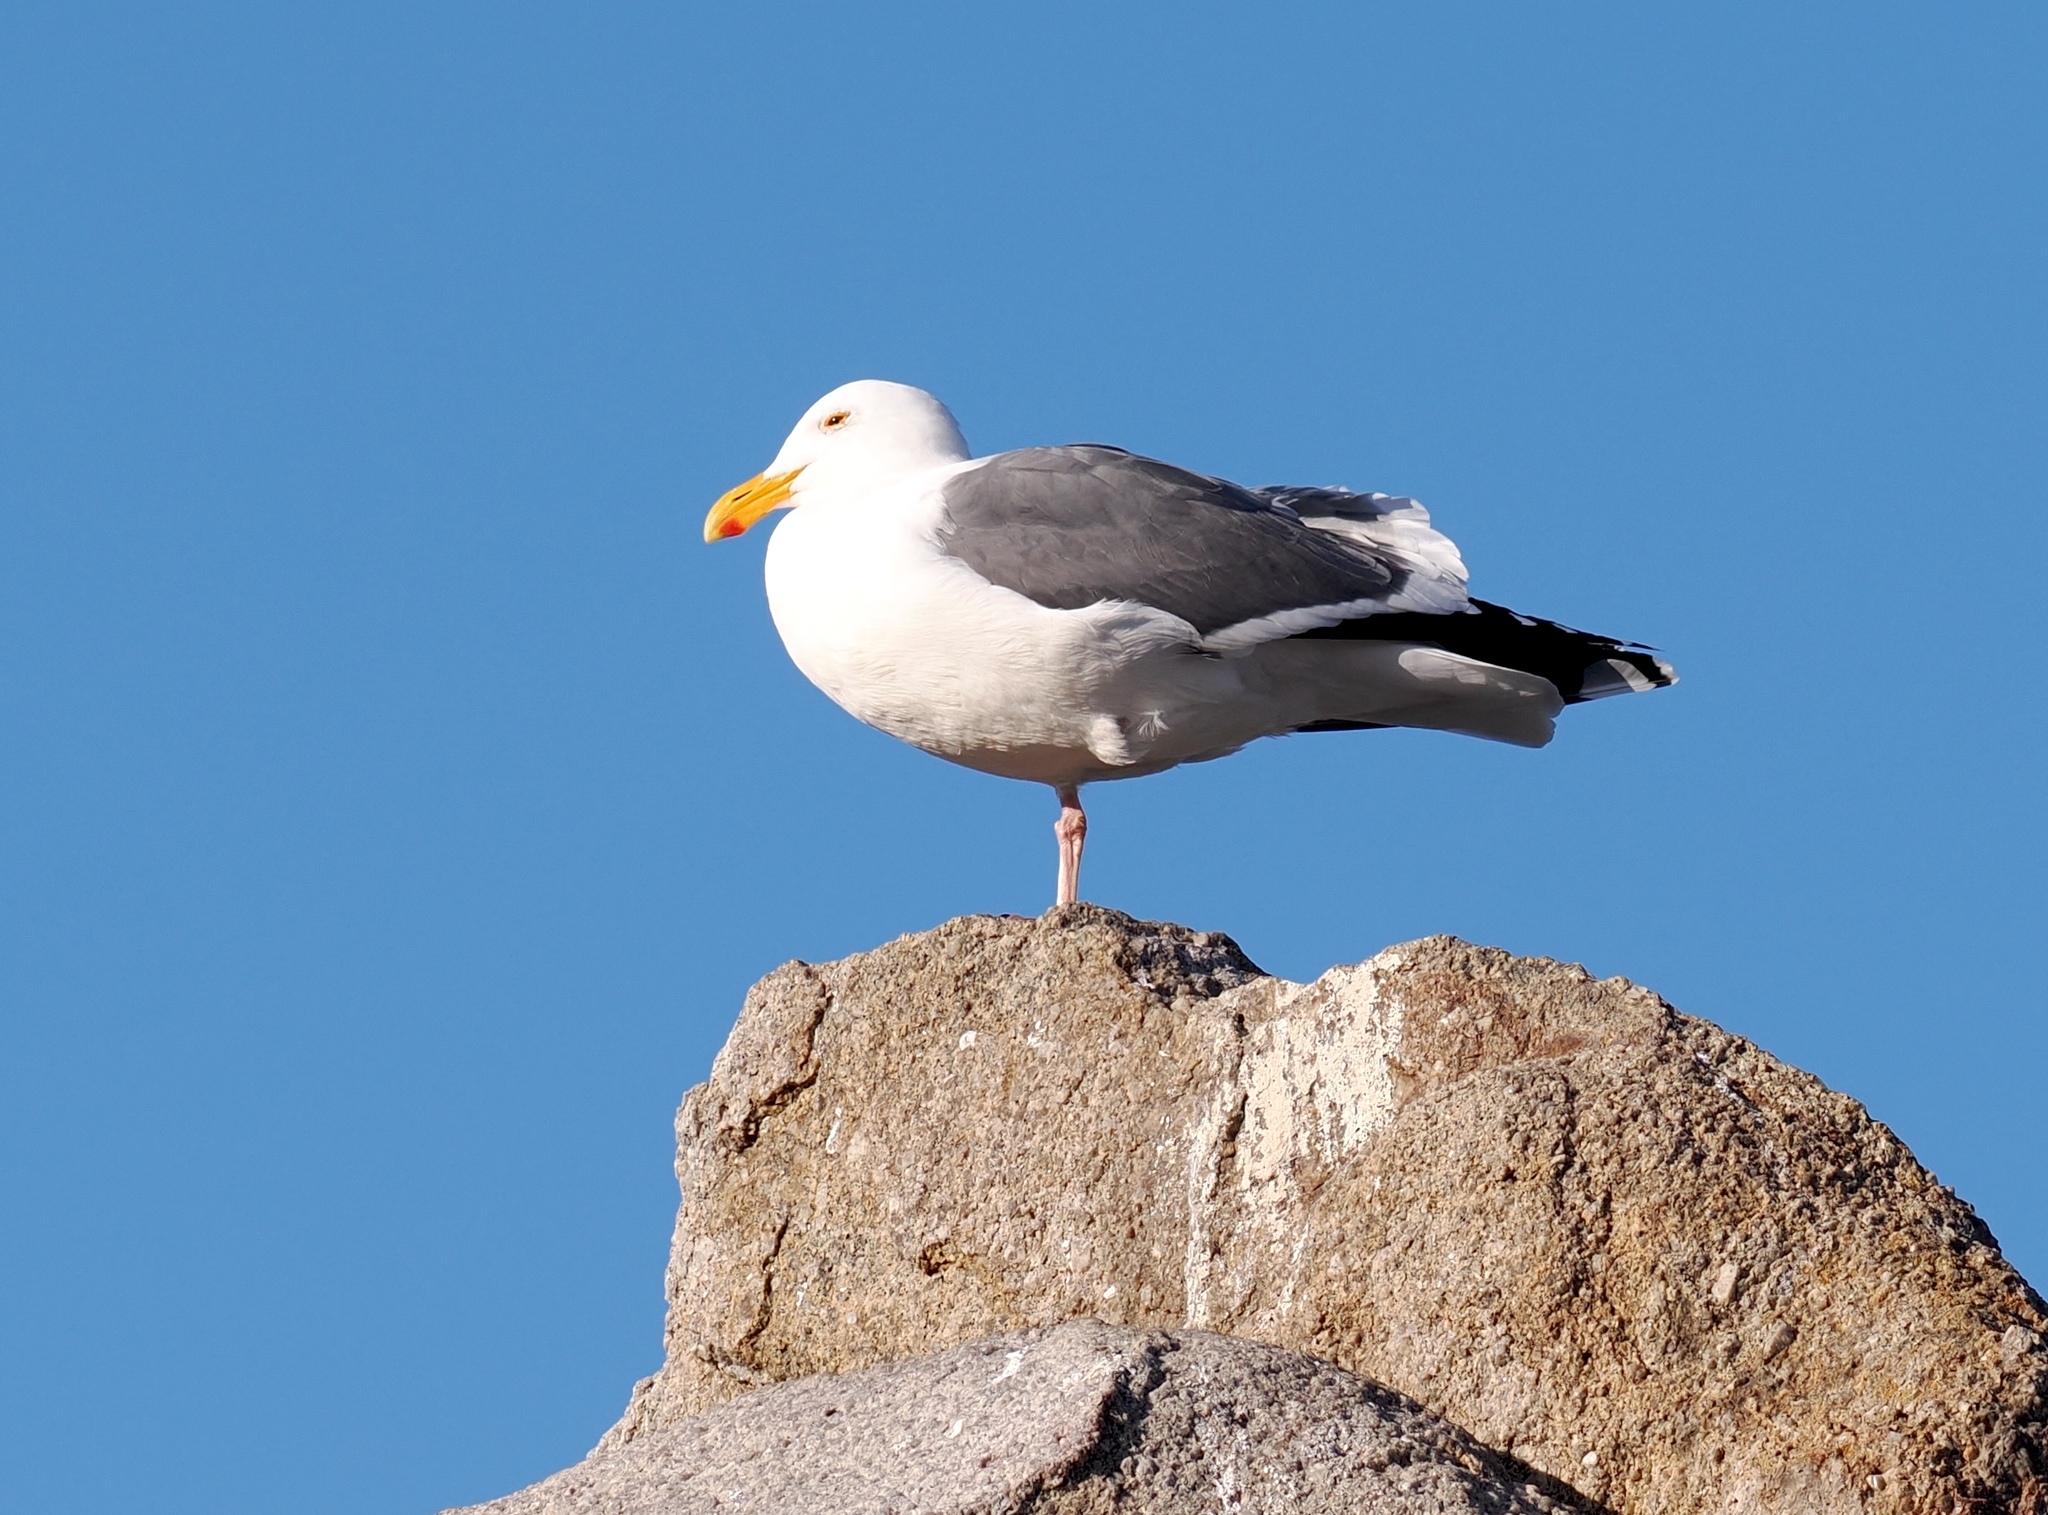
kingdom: Animalia
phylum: Chordata
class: Aves
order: Charadriiformes
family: Laridae
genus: Larus
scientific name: Larus occidentalis
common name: Western gull
